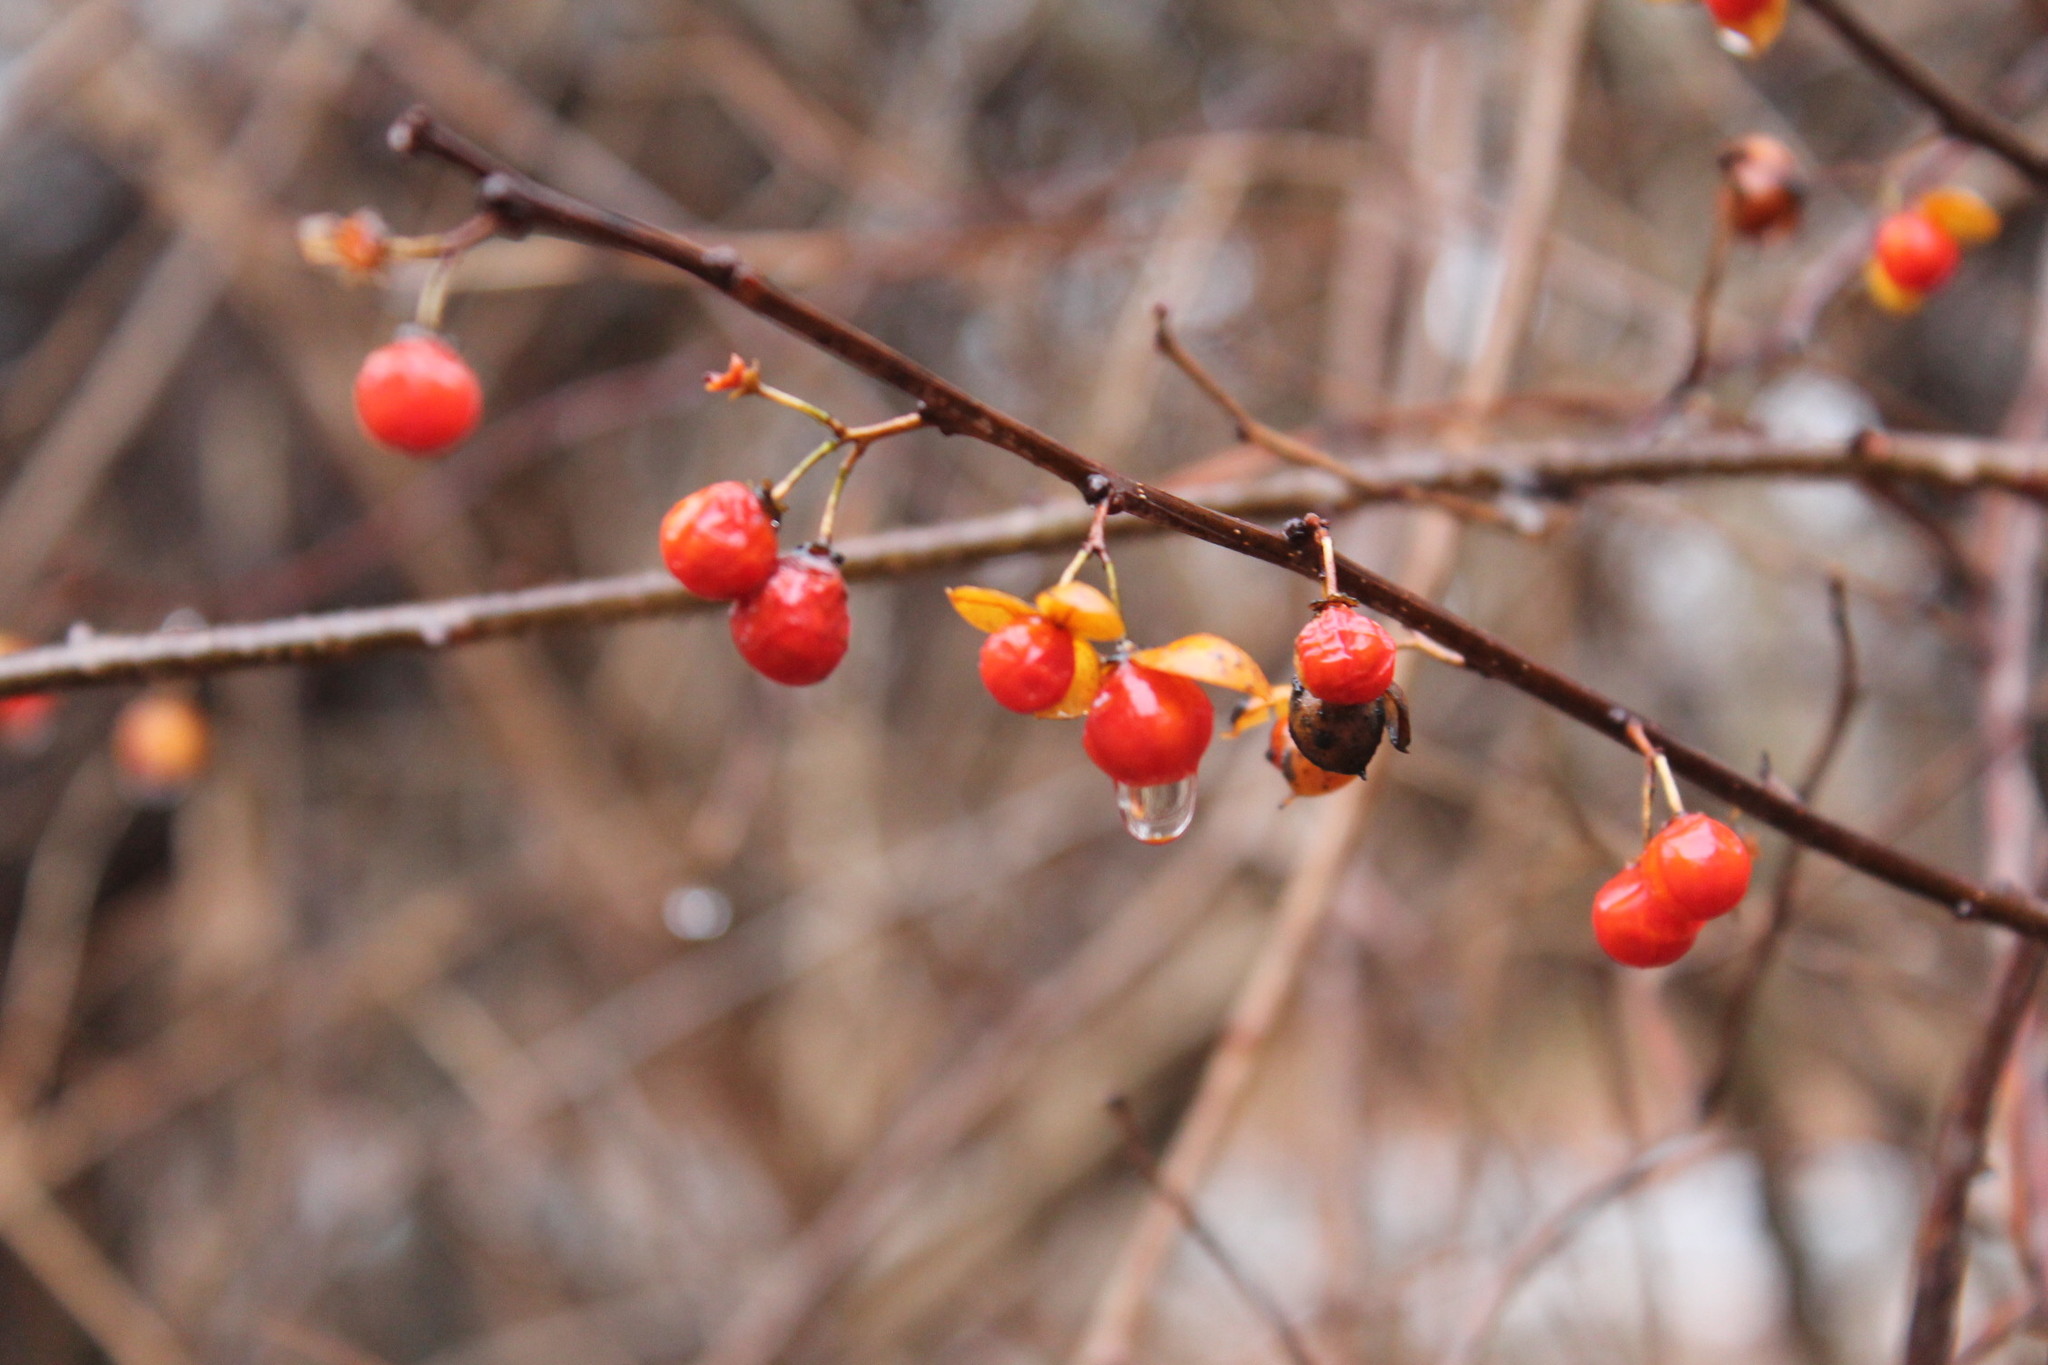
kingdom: Plantae
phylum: Tracheophyta
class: Magnoliopsida
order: Celastrales
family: Celastraceae
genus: Celastrus
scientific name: Celastrus orbiculatus
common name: Oriental bittersweet
